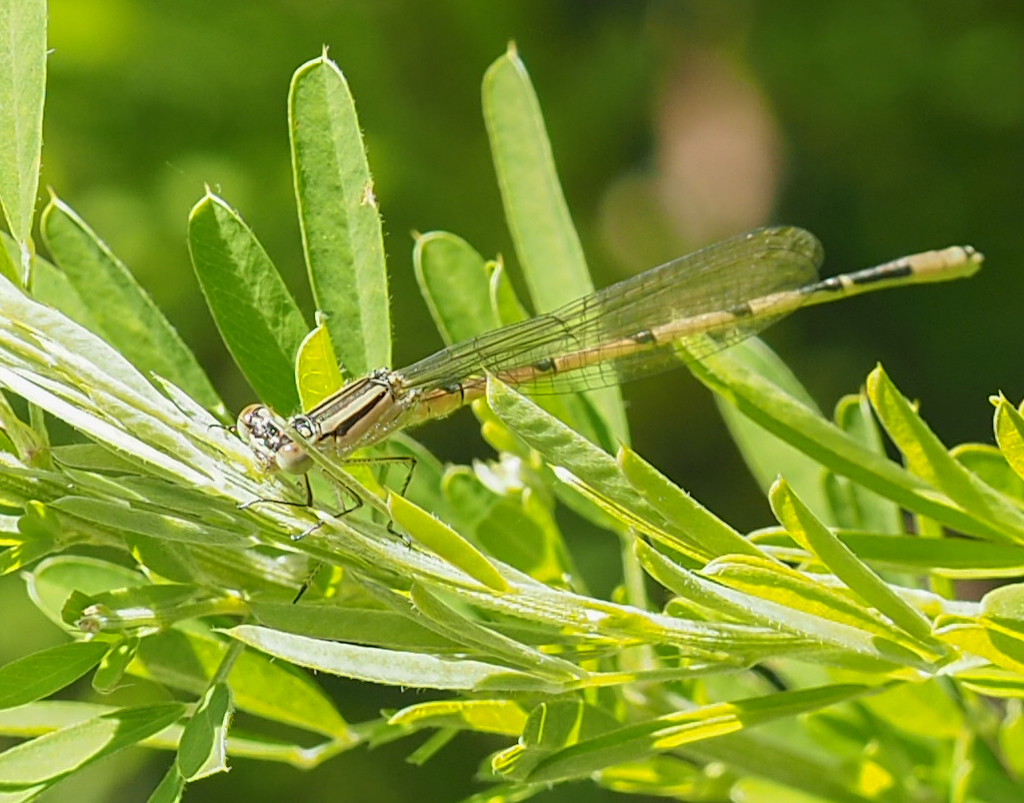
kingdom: Animalia
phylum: Arthropoda
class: Insecta
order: Odonata
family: Coenagrionidae
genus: Enallagma
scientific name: Enallagma durum
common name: Big bluet
